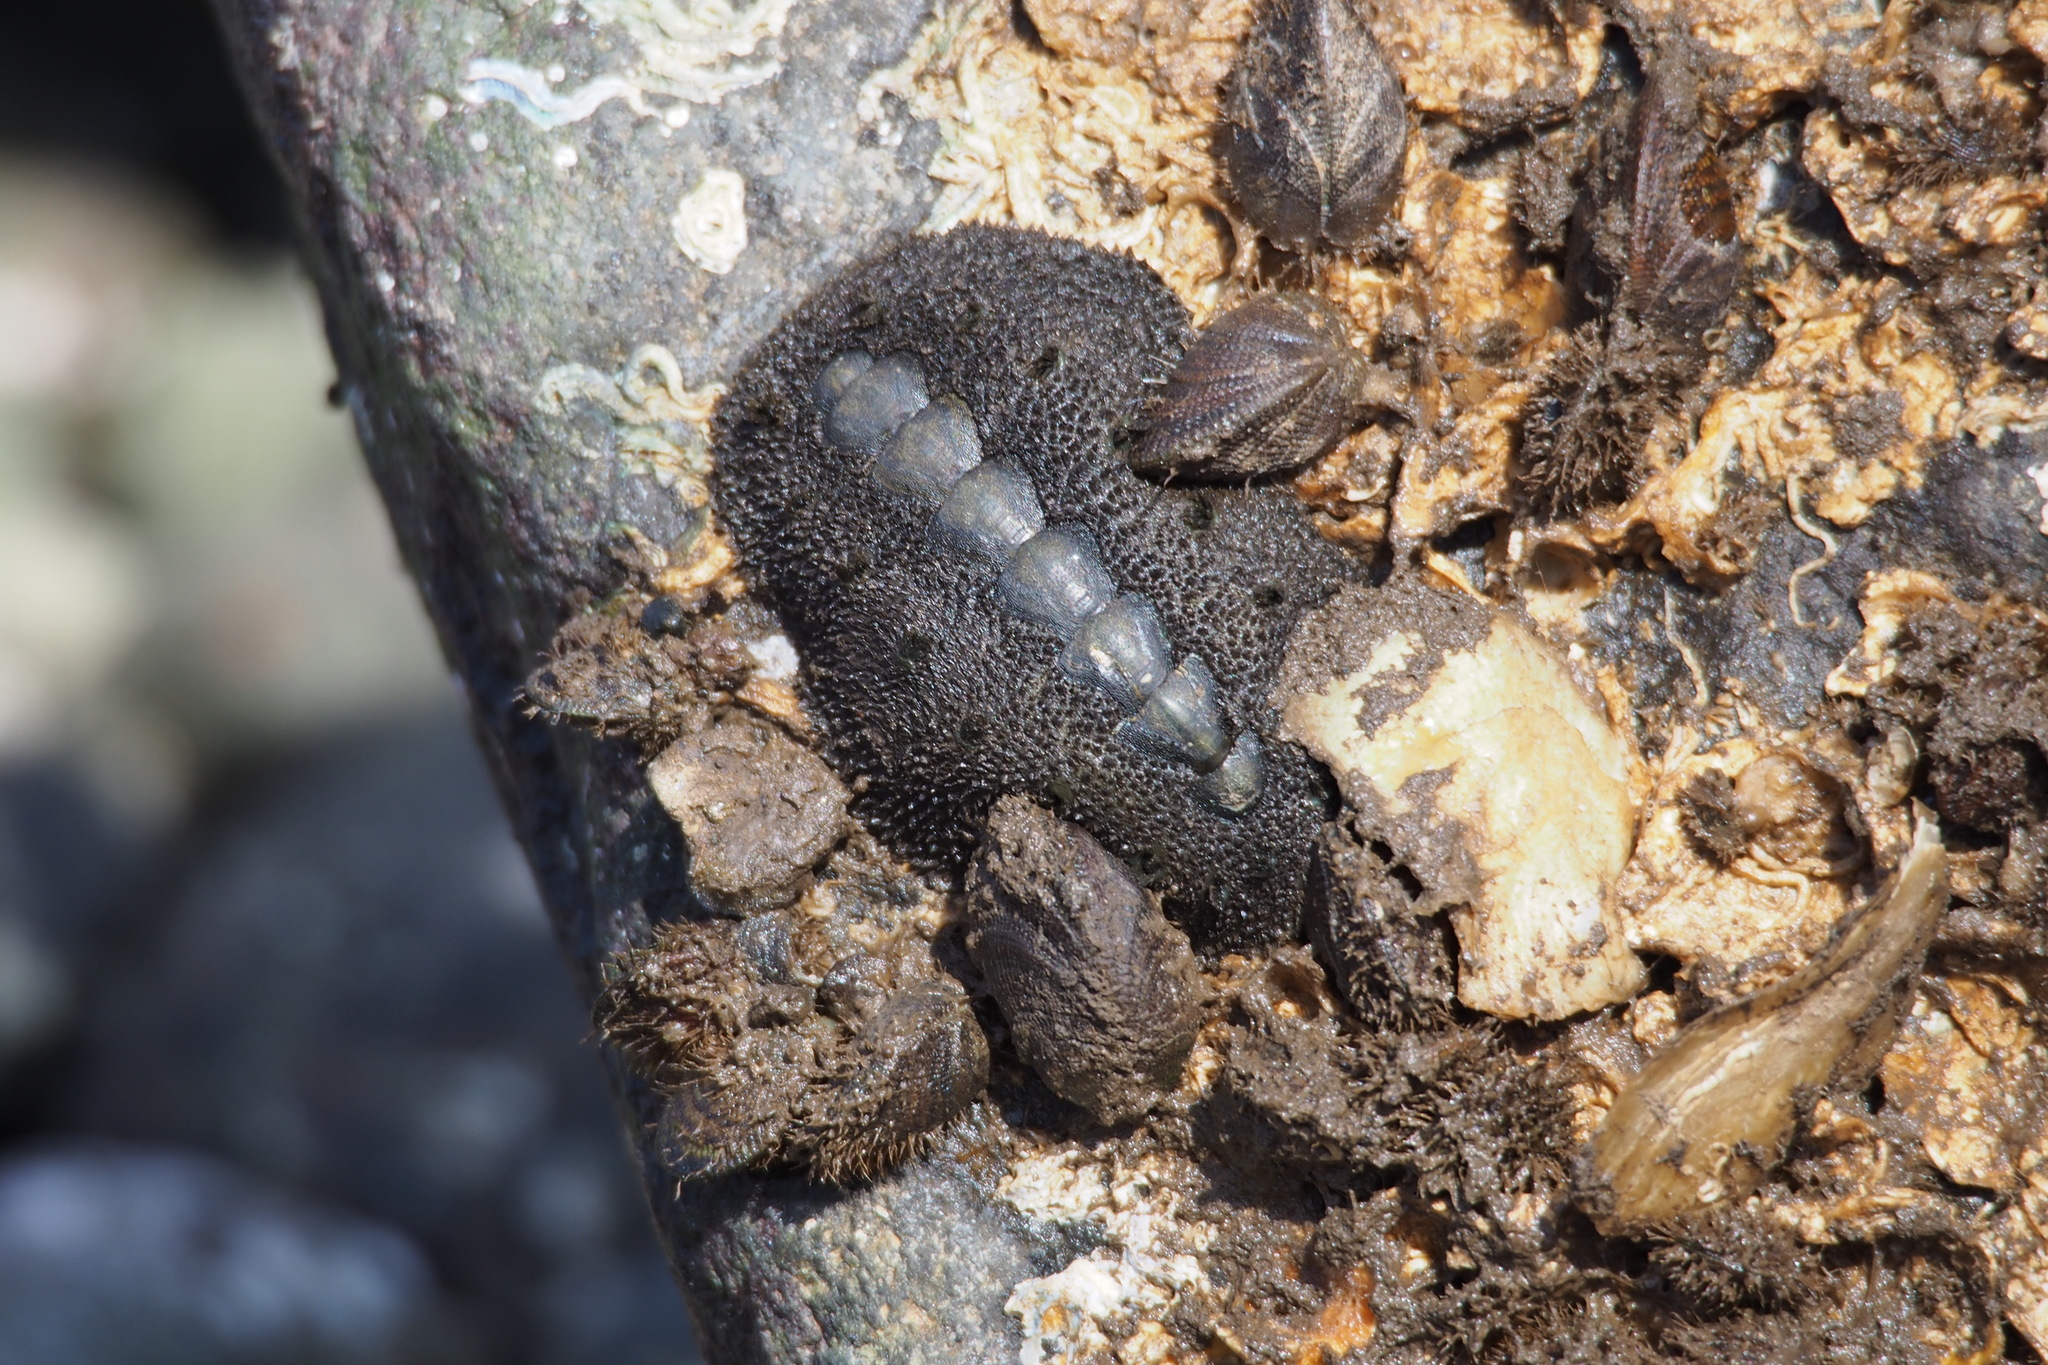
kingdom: Animalia
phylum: Mollusca
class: Polyplacophora
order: Chitonida
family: Acanthochitonidae
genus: Acanthochitona
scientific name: Acanthochitona defilippii
